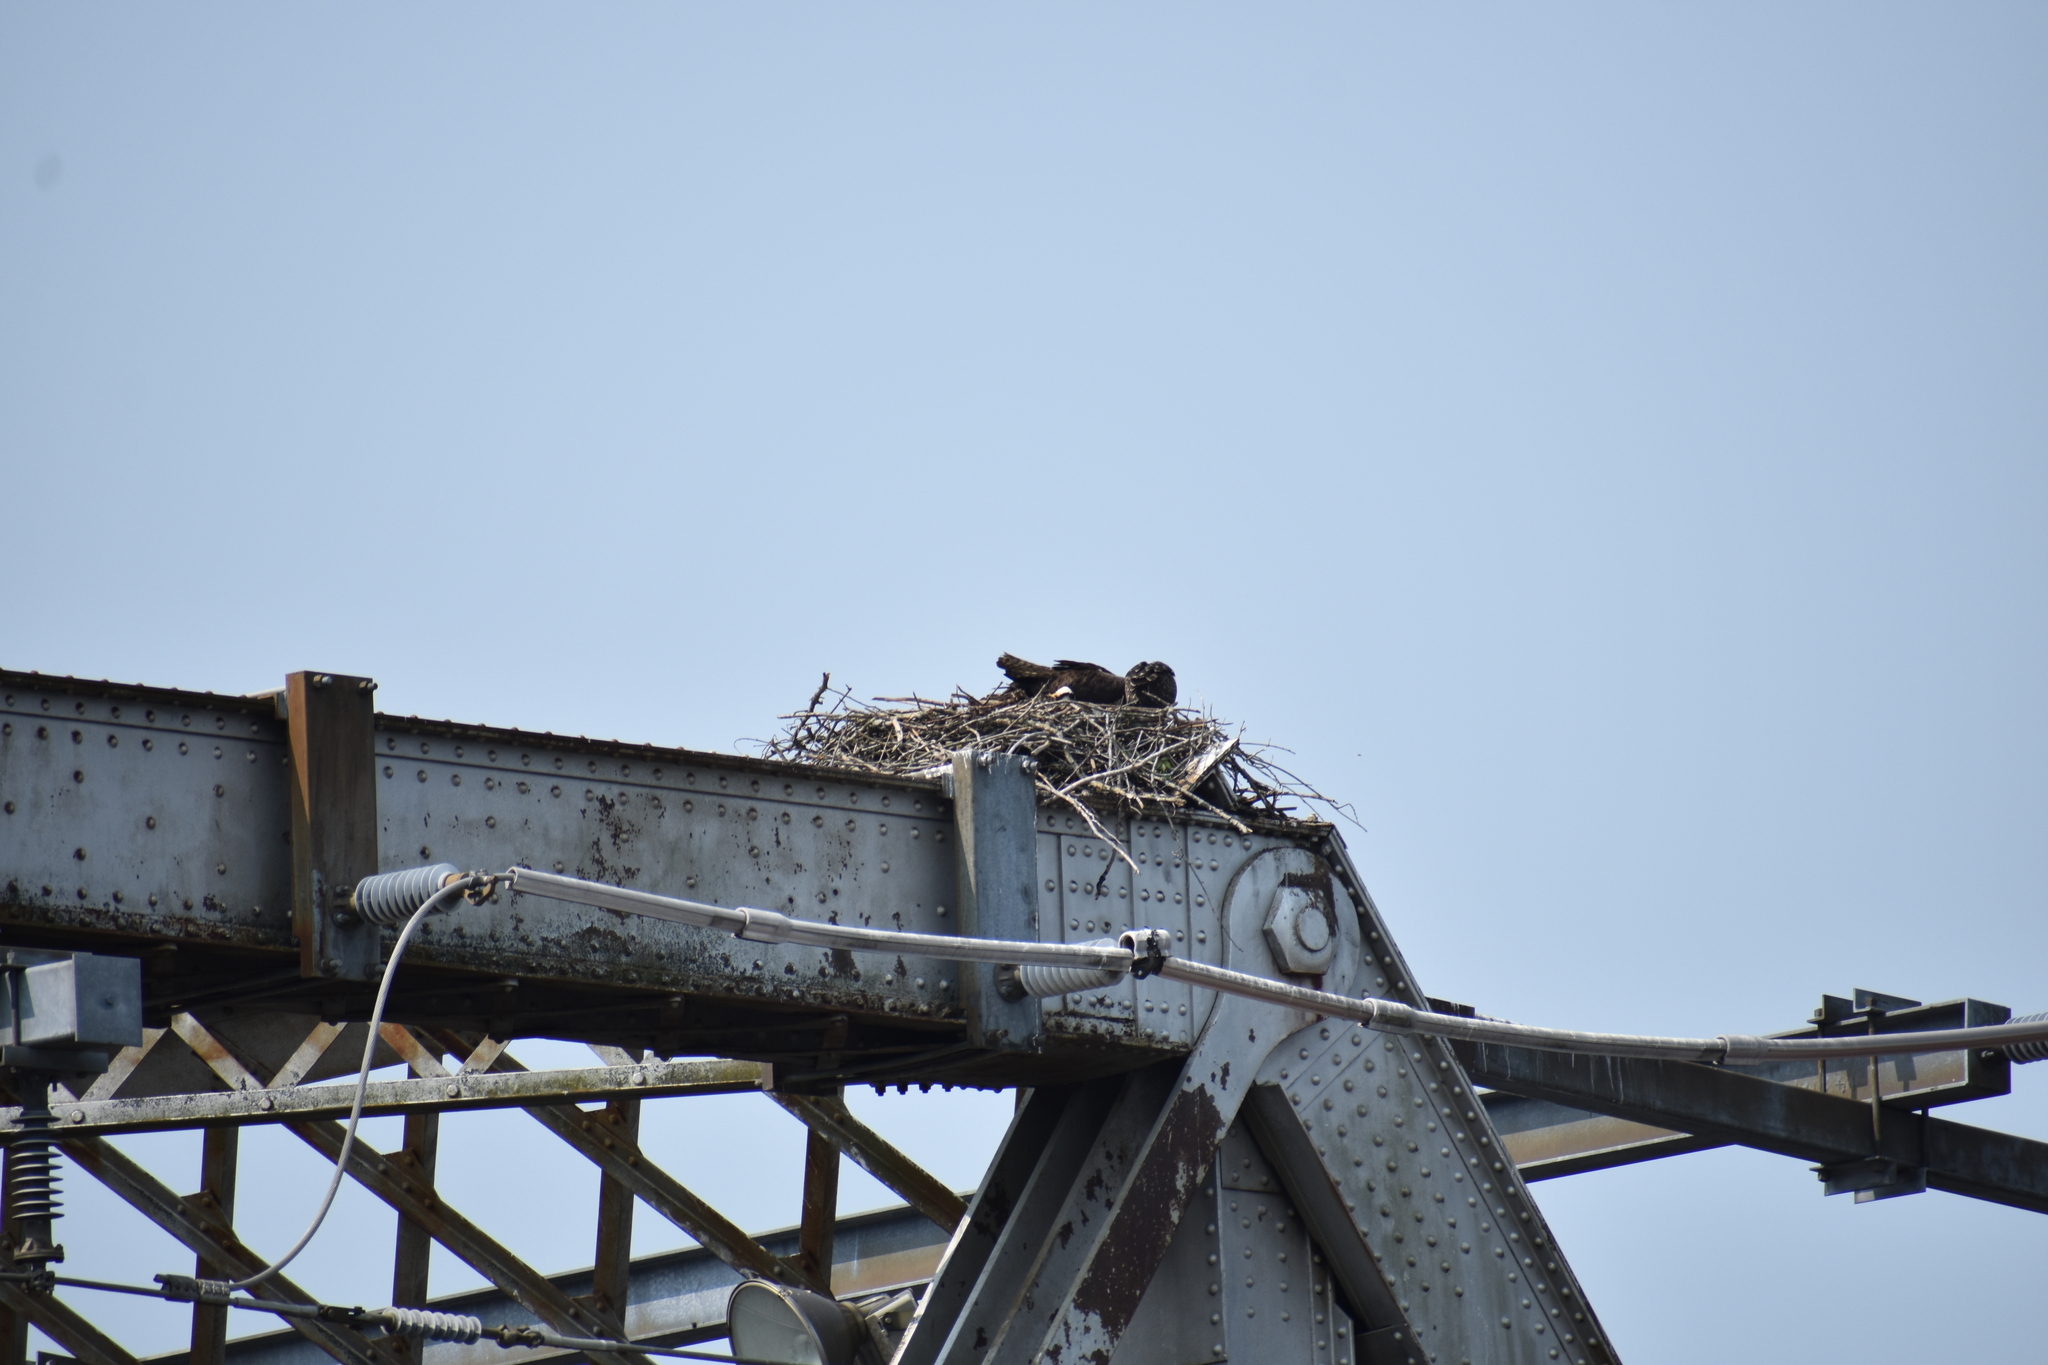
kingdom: Animalia
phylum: Chordata
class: Aves
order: Accipitriformes
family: Pandionidae
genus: Pandion
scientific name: Pandion haliaetus
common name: Osprey
